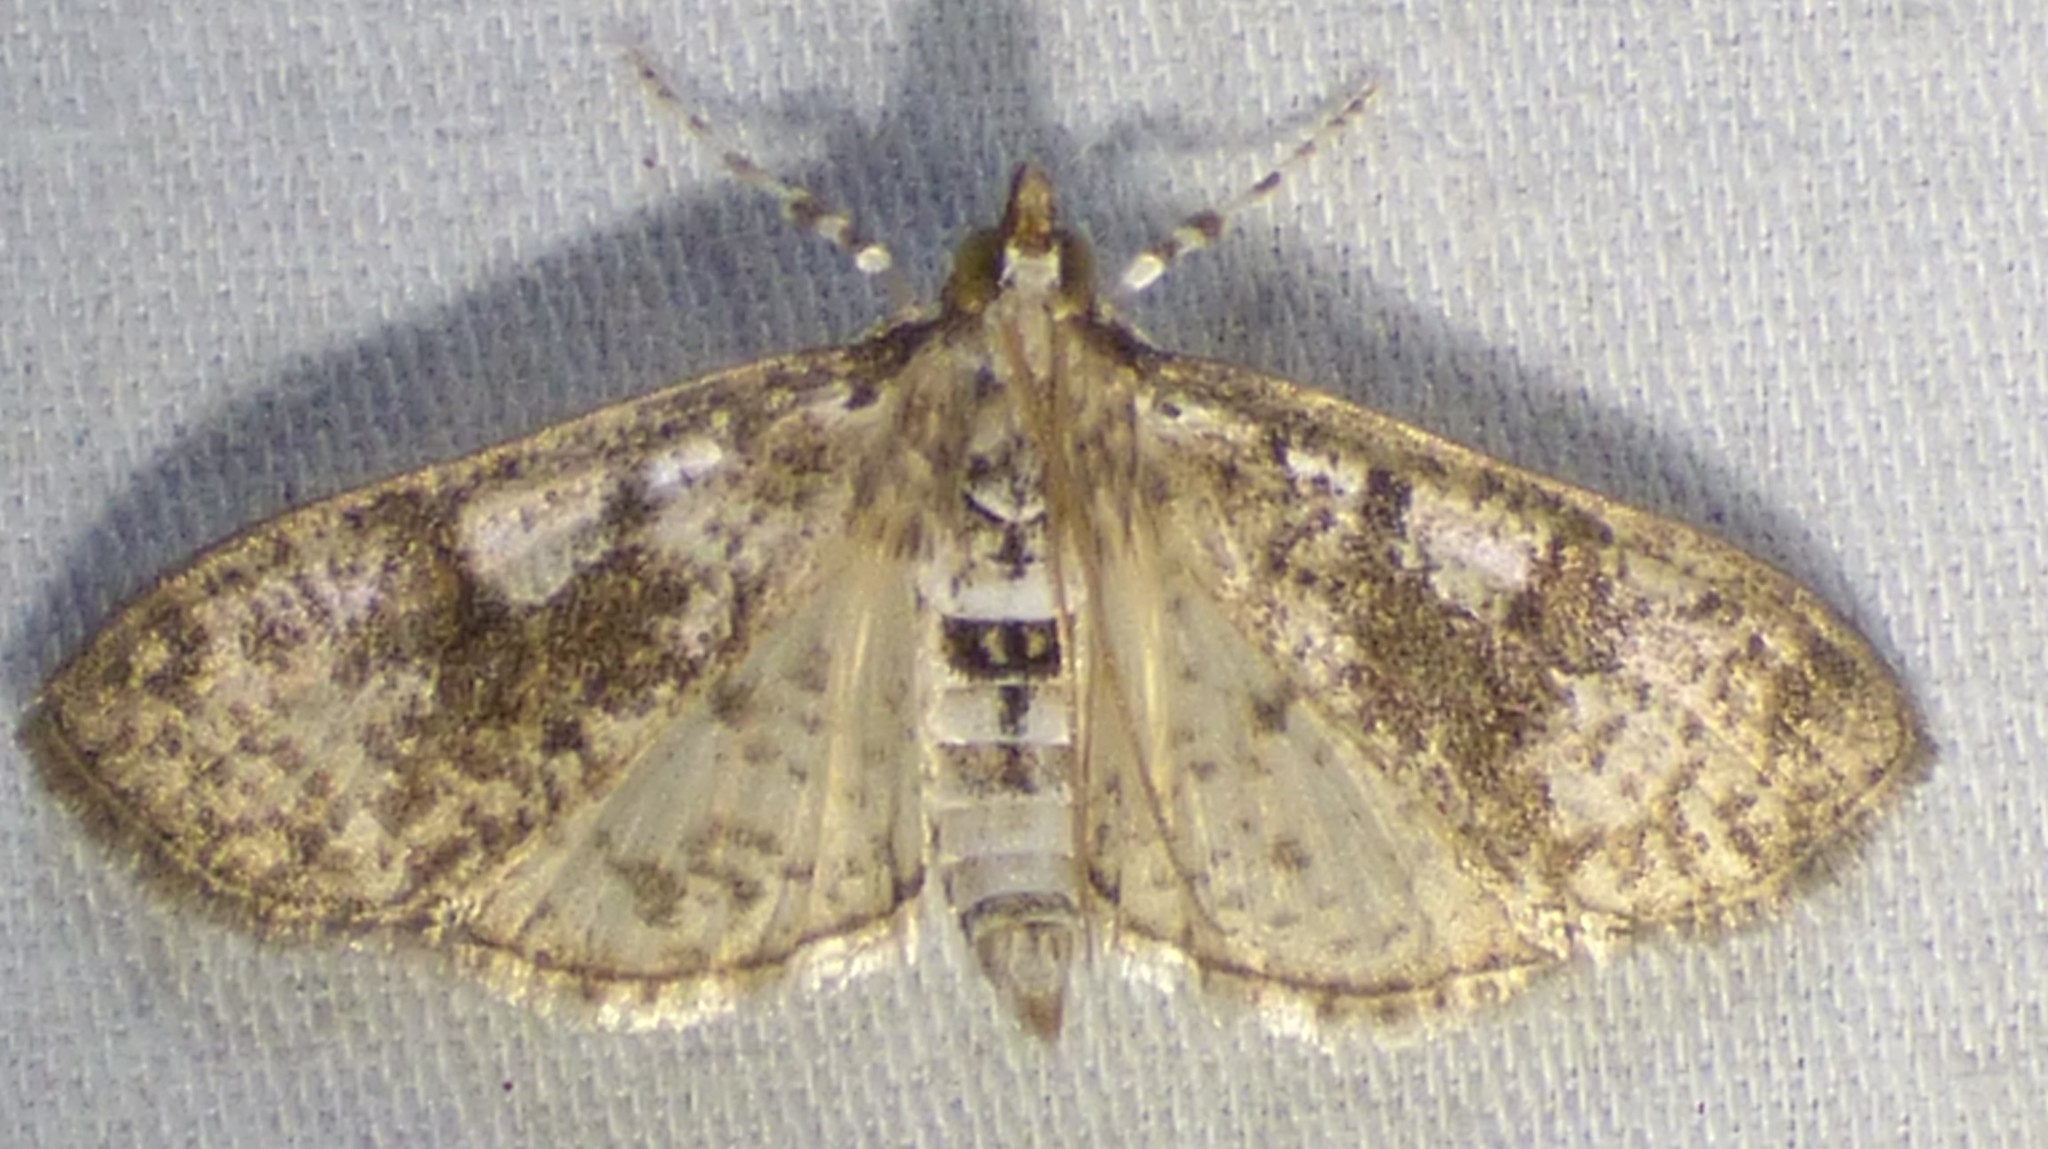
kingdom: Animalia
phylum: Arthropoda
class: Insecta
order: Lepidoptera
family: Crambidae
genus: Palpita
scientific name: Palpita magniferalis
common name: Splendid palpita moth
